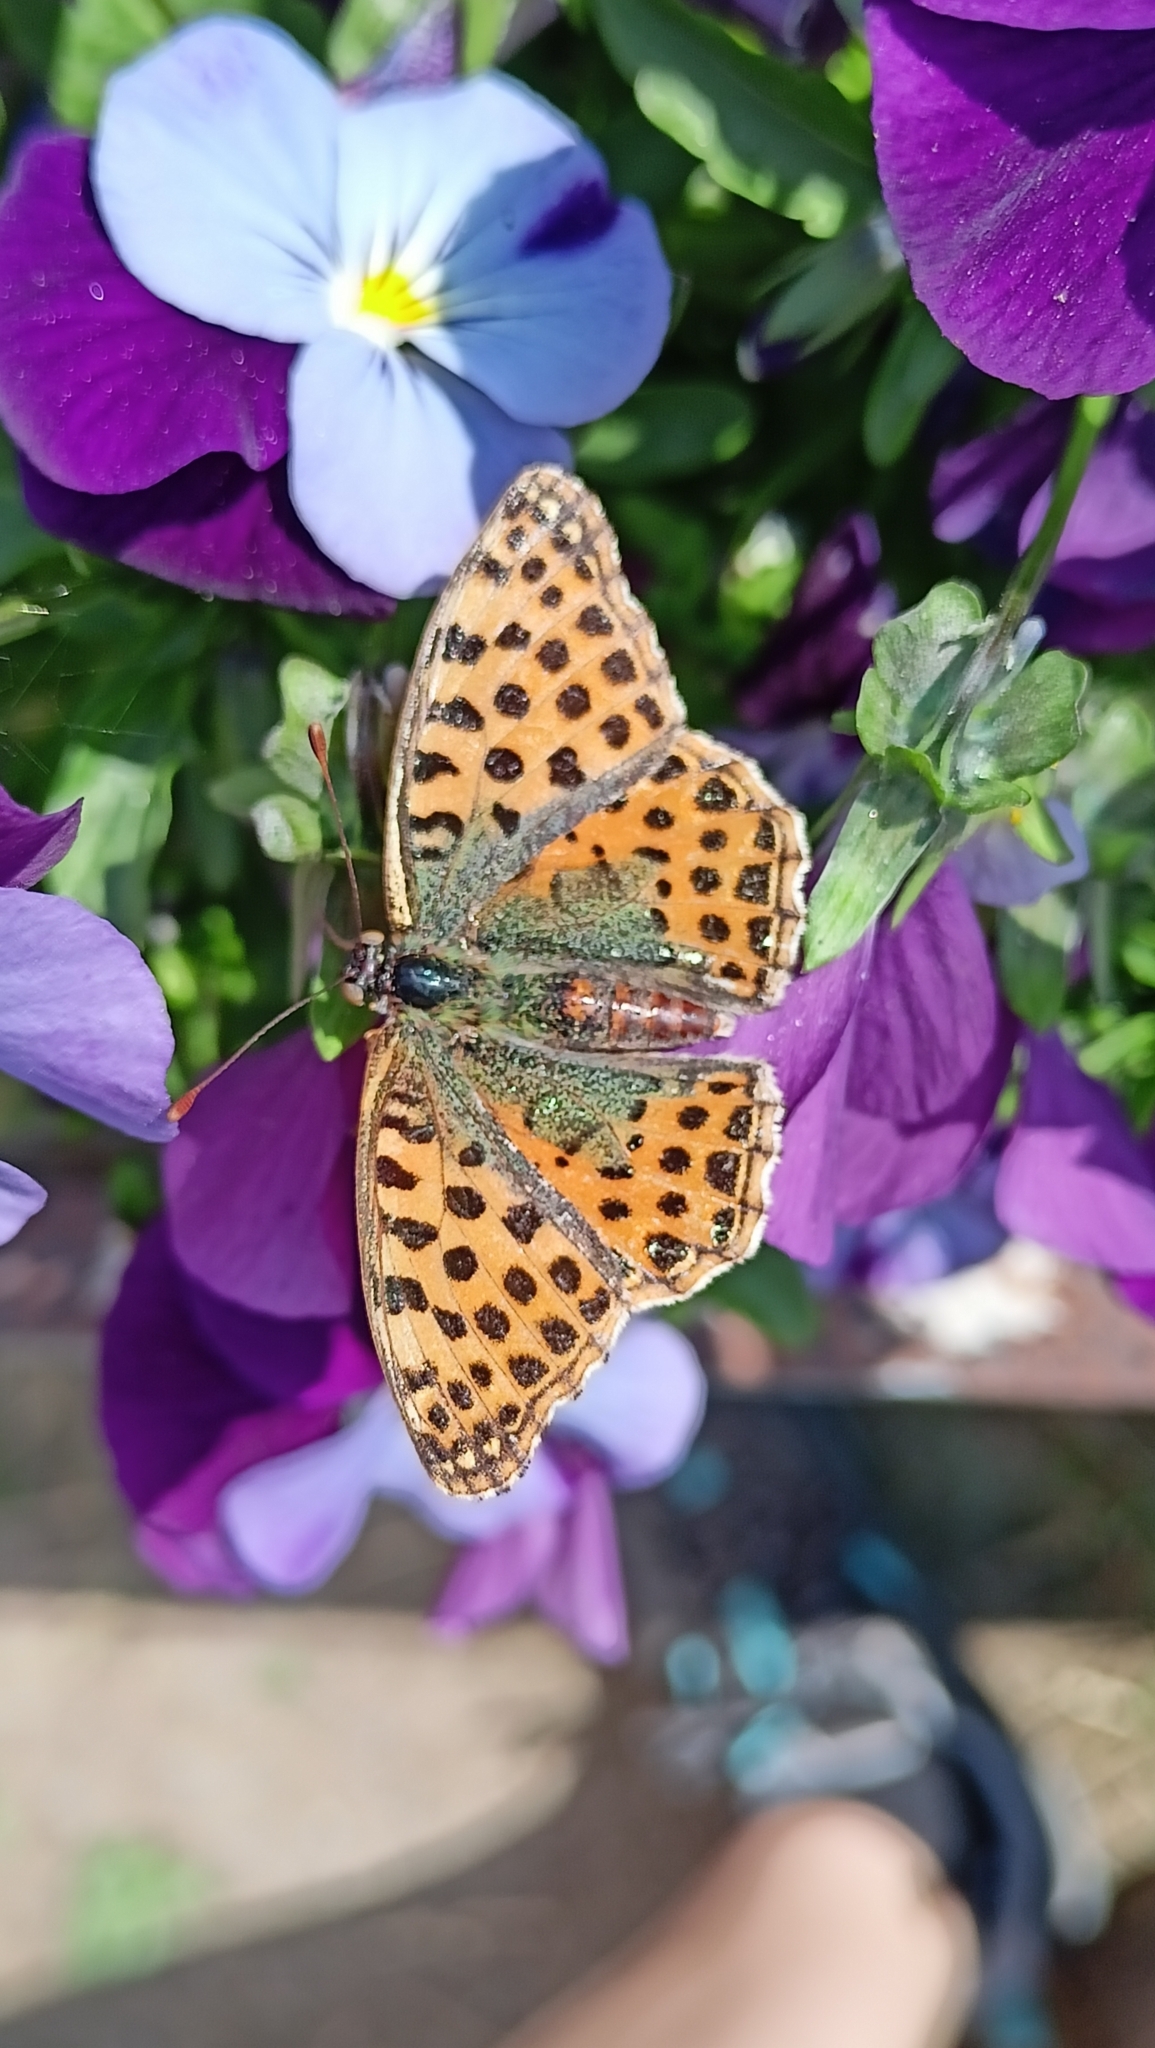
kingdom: Animalia
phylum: Arthropoda
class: Insecta
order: Lepidoptera
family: Nymphalidae
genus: Issoria
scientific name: Issoria lathonia
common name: Queen of spain fritillary
